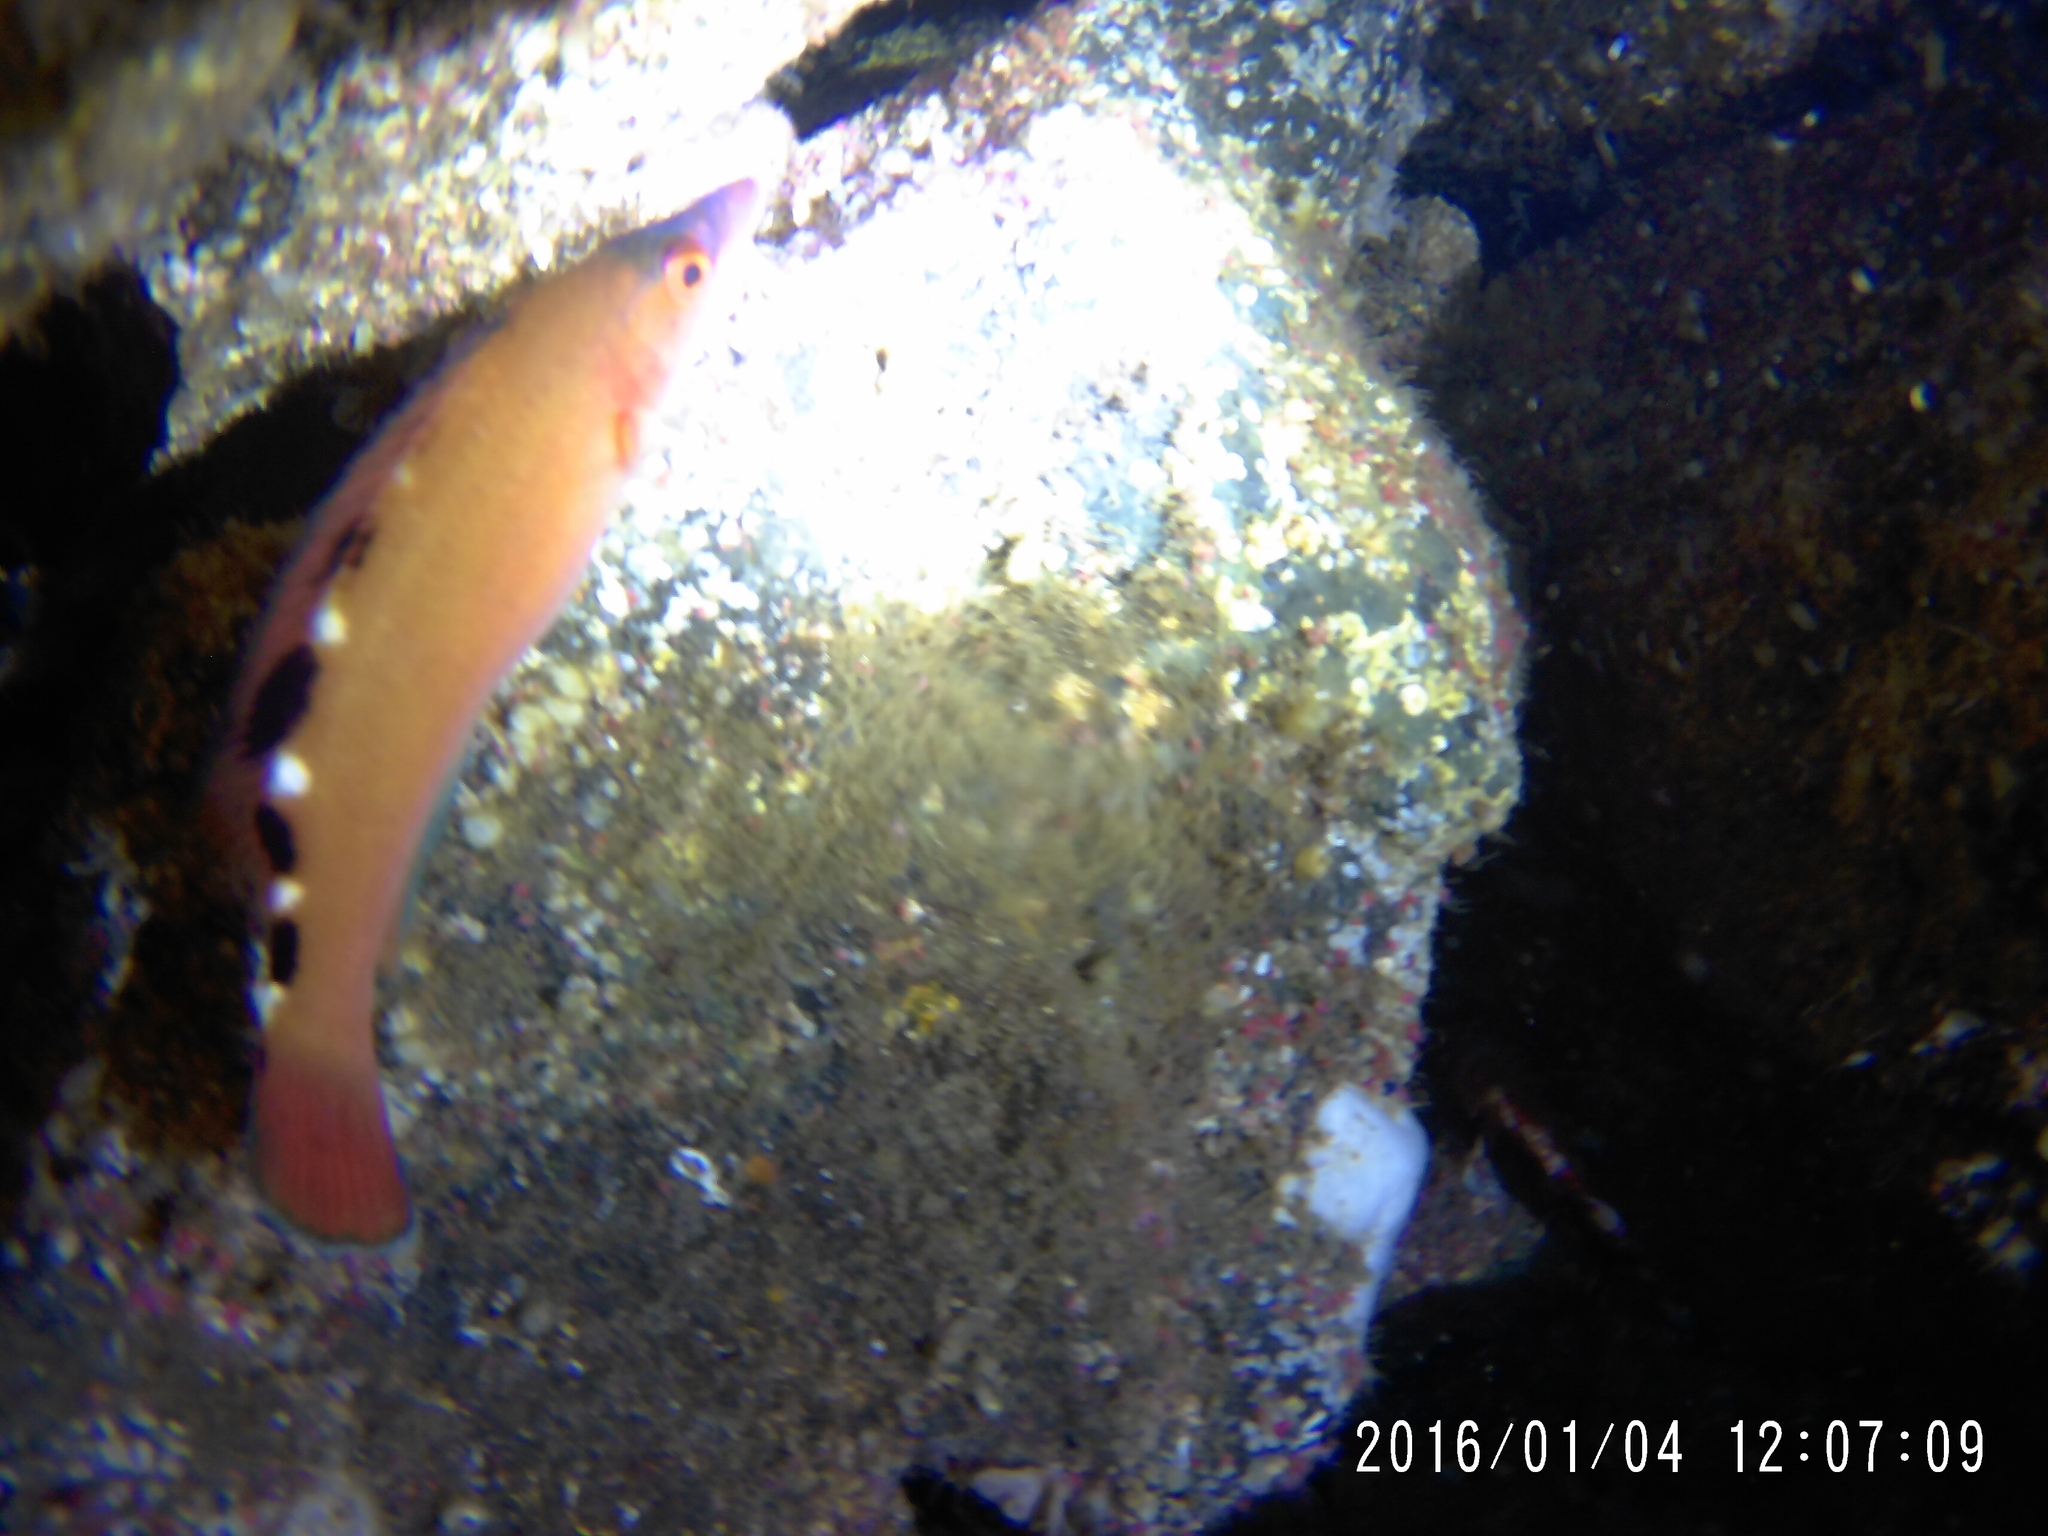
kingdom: Animalia
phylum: Chordata
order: Perciformes
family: Labridae
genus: Labrus
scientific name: Labrus mixtus
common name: Cuckoo wrasse
